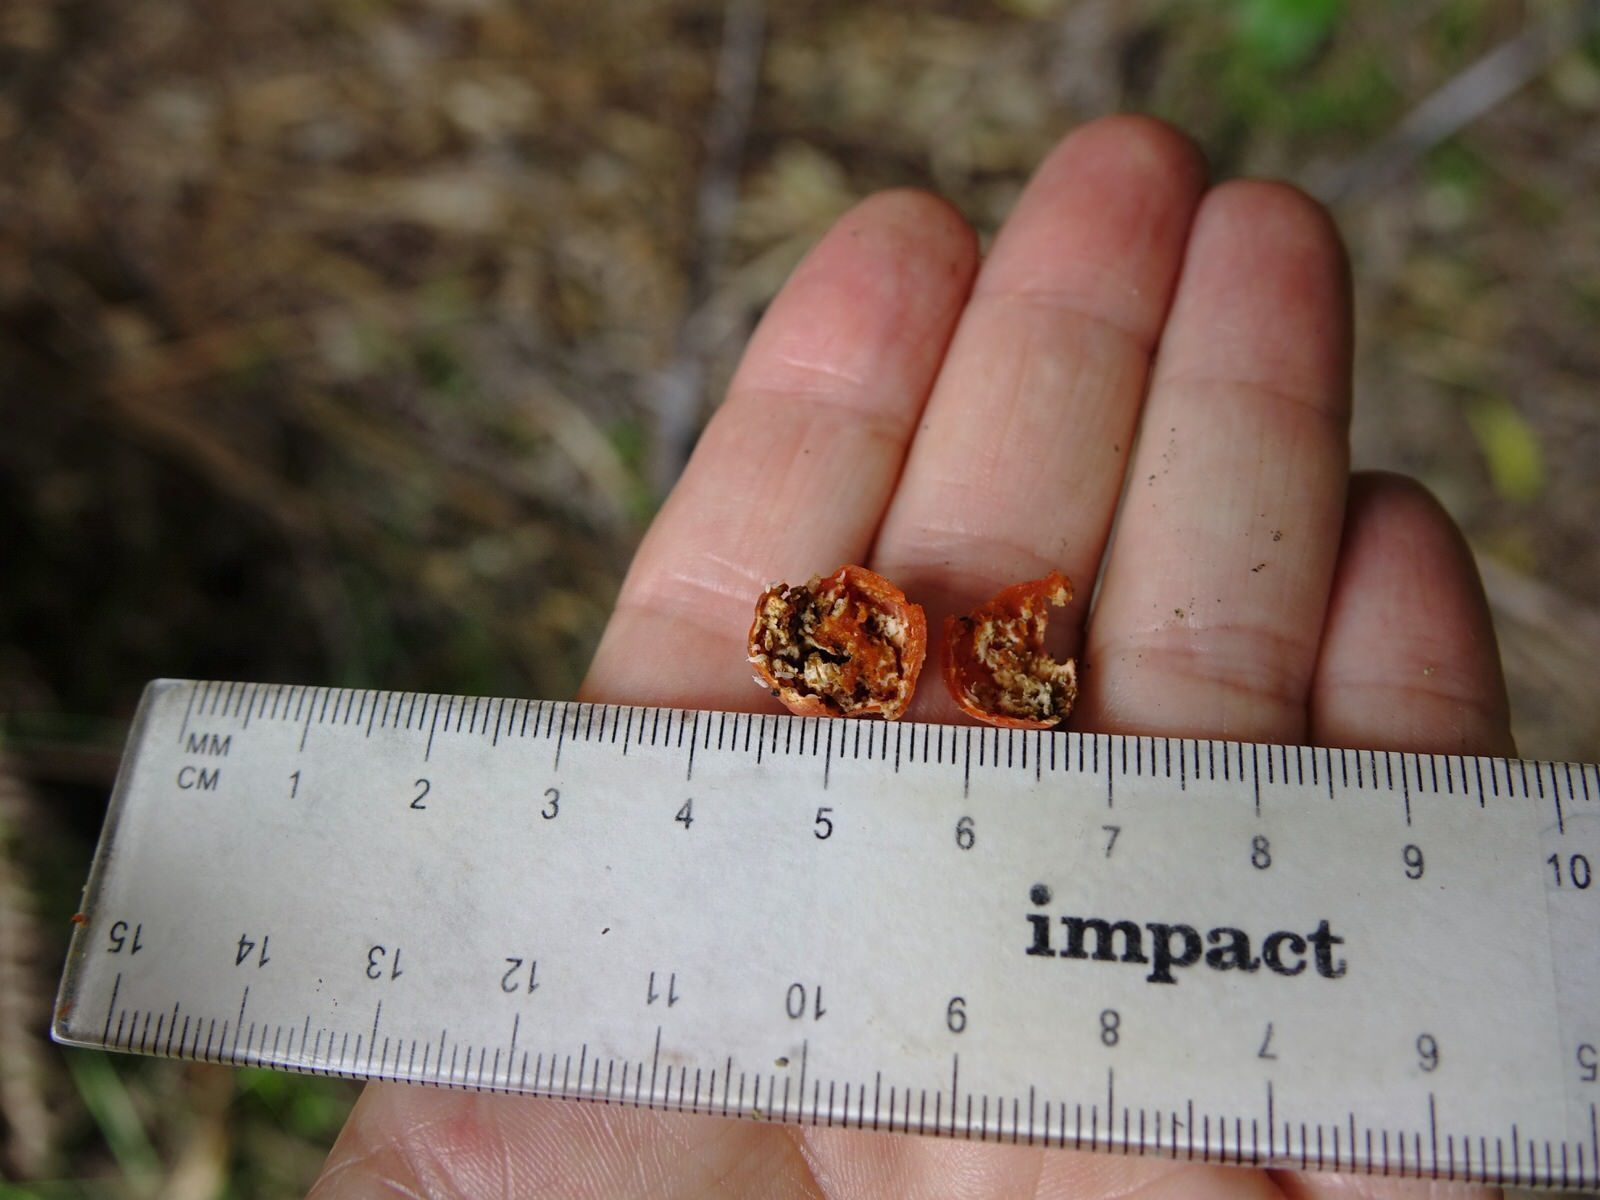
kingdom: Fungi
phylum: Ascomycota
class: Pezizomycetes
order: Pezizales
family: Pyronemataceae
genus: Paurocotylis
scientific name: Paurocotylis pila
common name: Scarlet berry truffle
